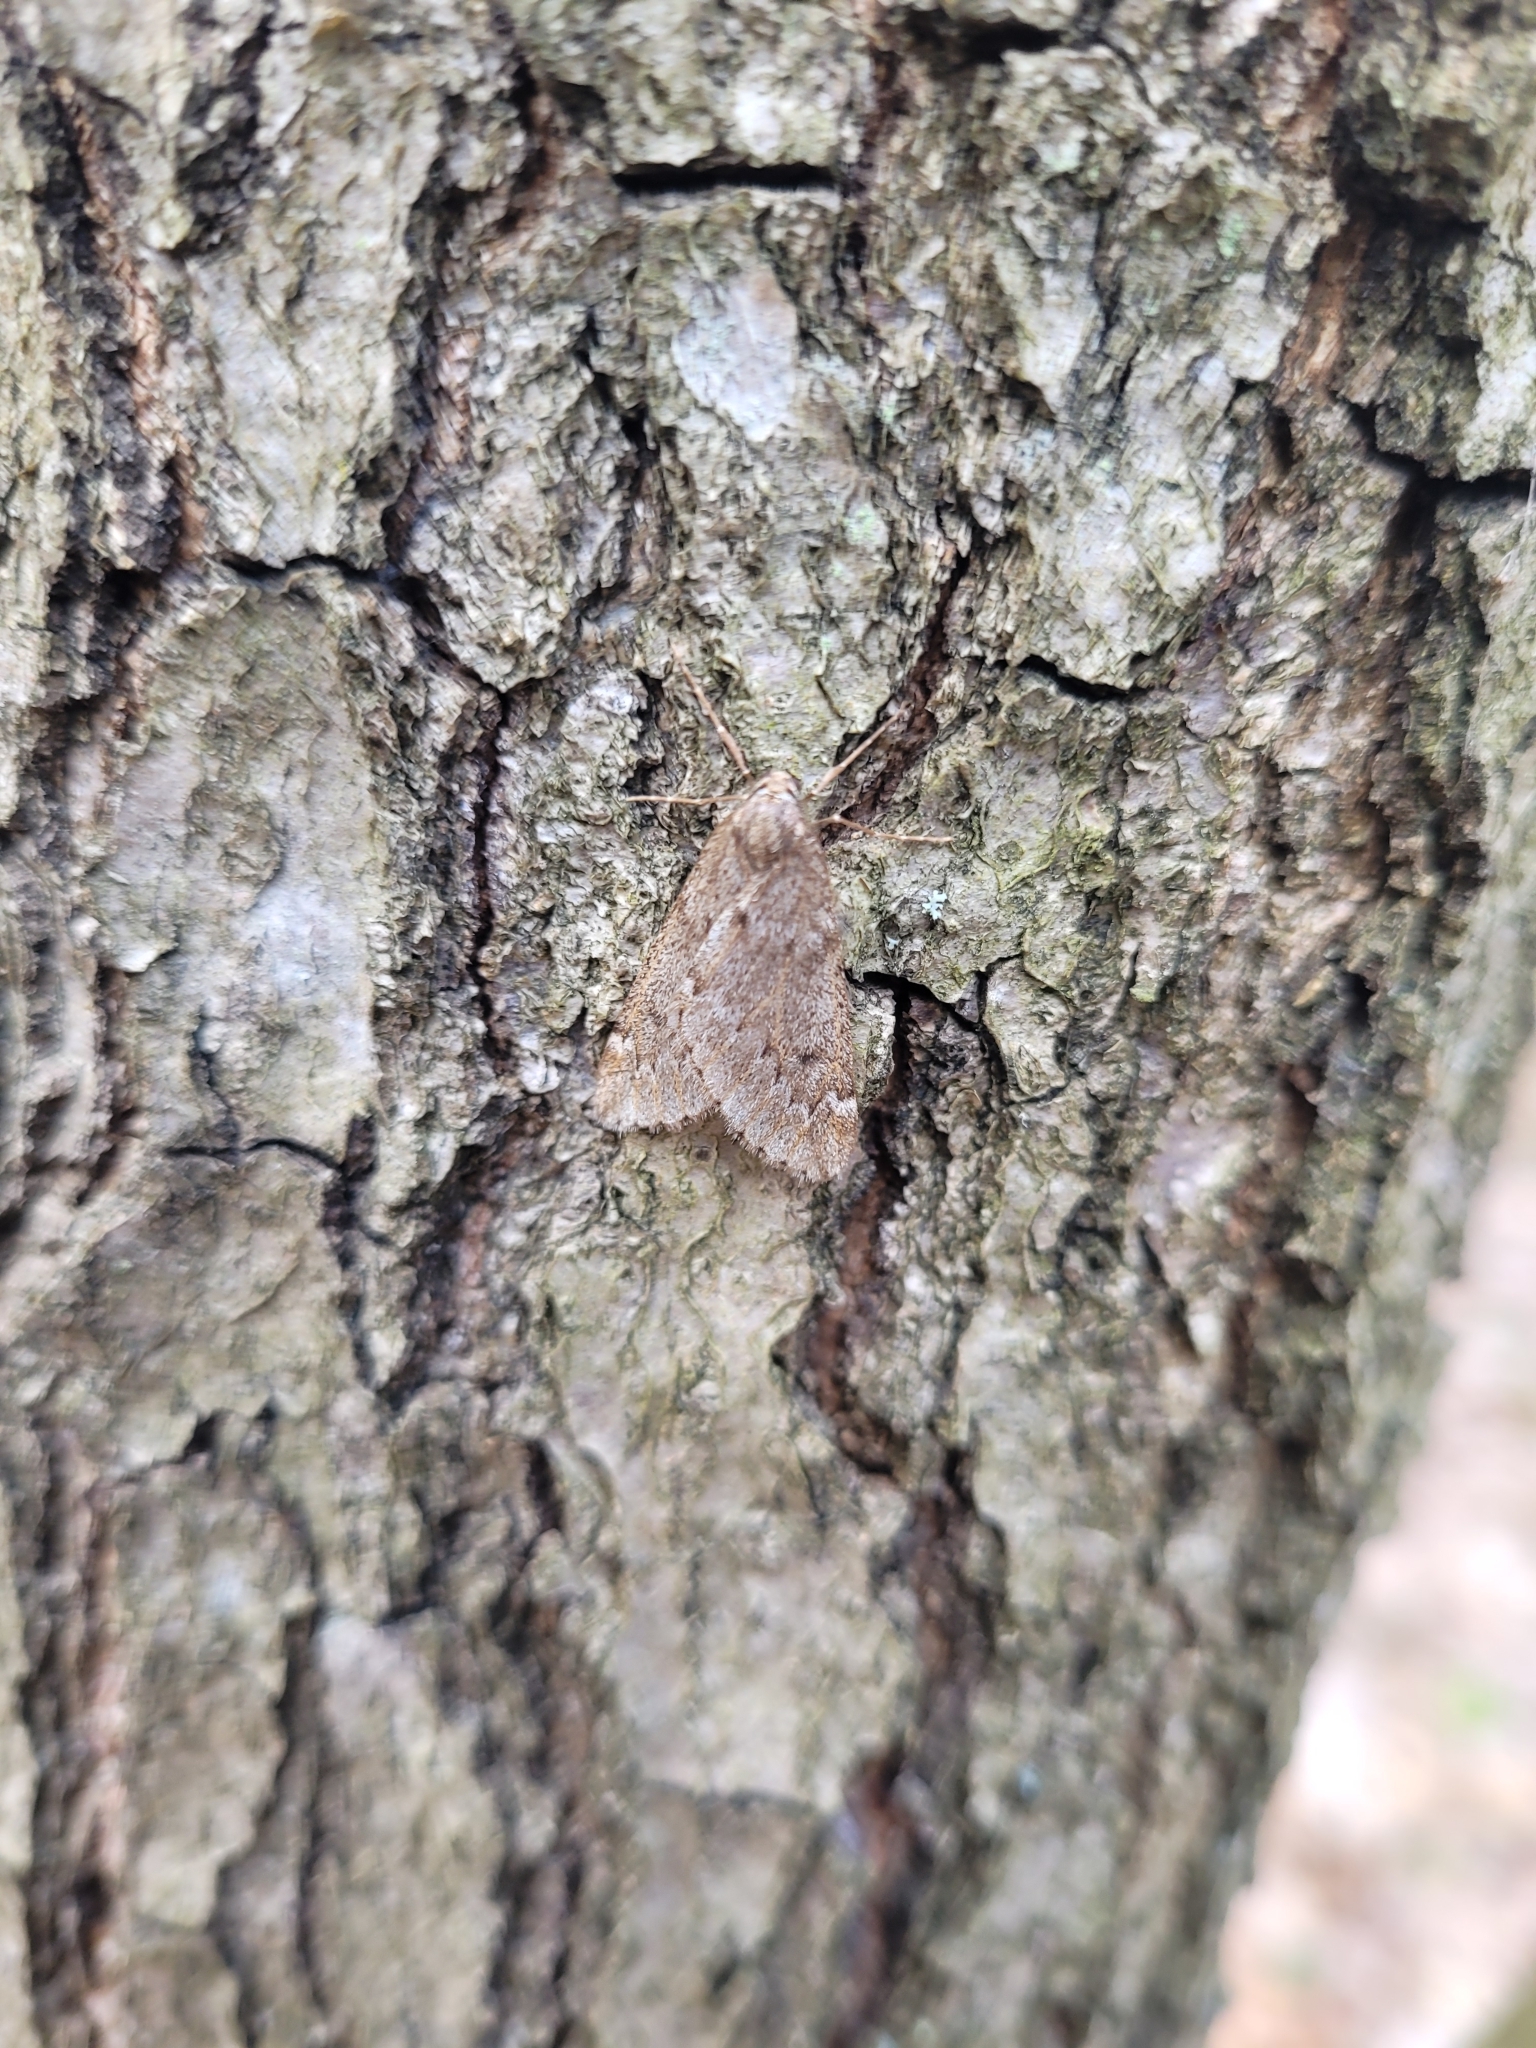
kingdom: Animalia
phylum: Arthropoda
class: Insecta
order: Lepidoptera
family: Geometridae
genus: Alsophila
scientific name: Alsophila aescularia
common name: March moth
